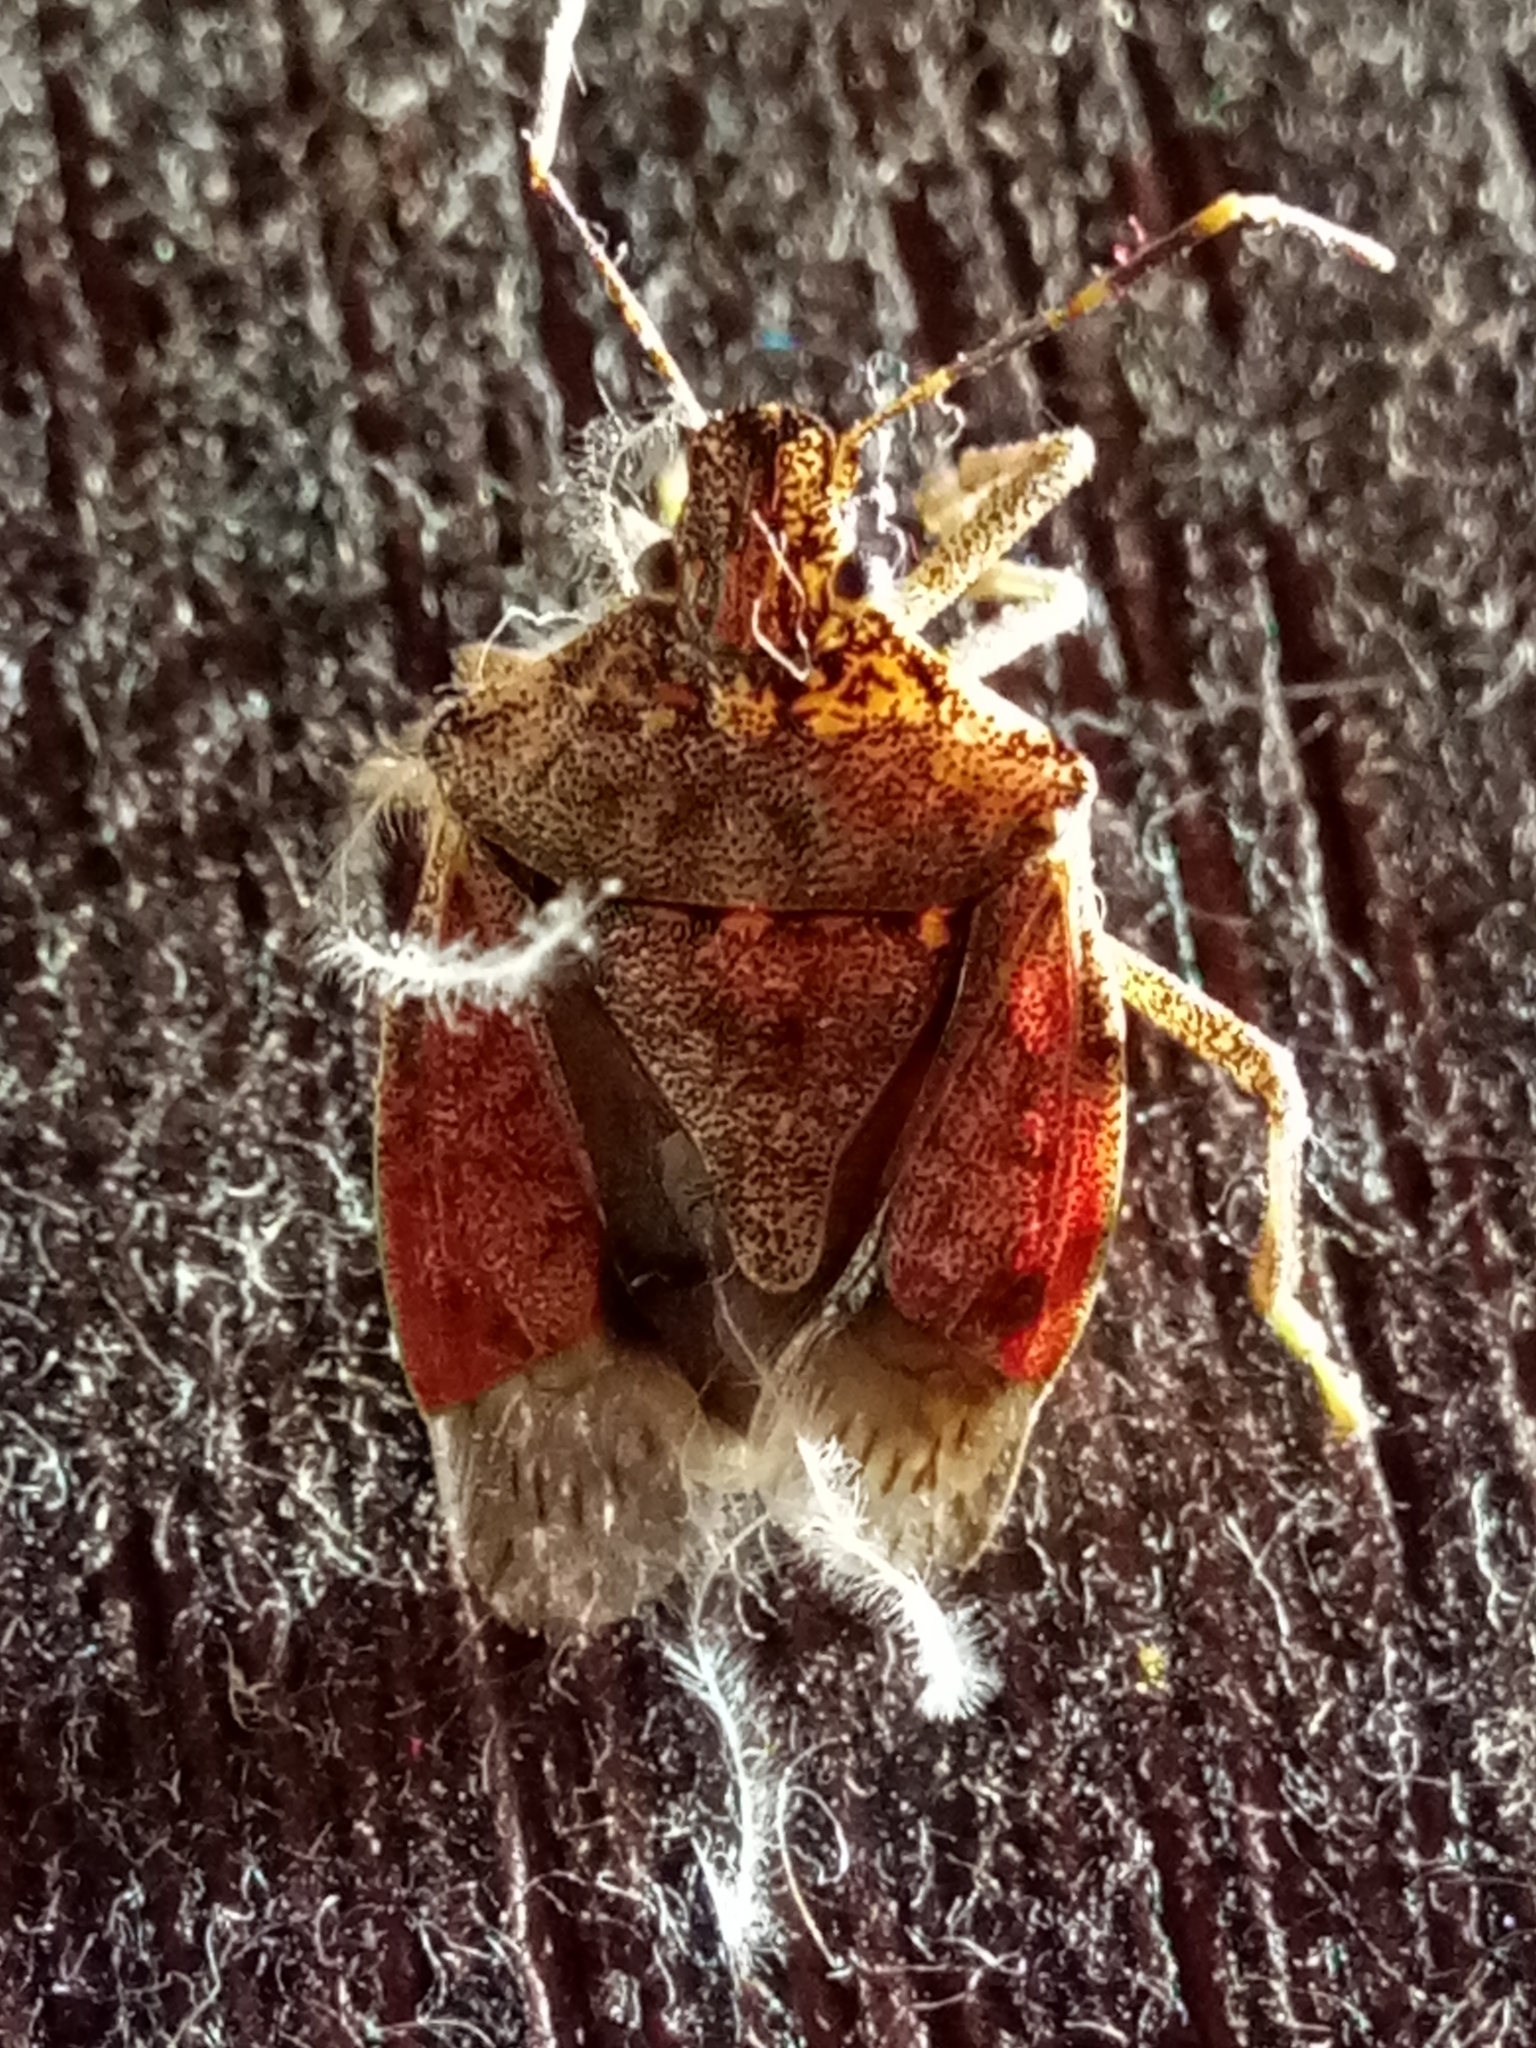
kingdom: Animalia
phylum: Arthropoda
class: Insecta
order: Hemiptera
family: Pentatomidae
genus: Halyomorpha
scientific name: Halyomorpha halys
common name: Brown marmorated stink bug
